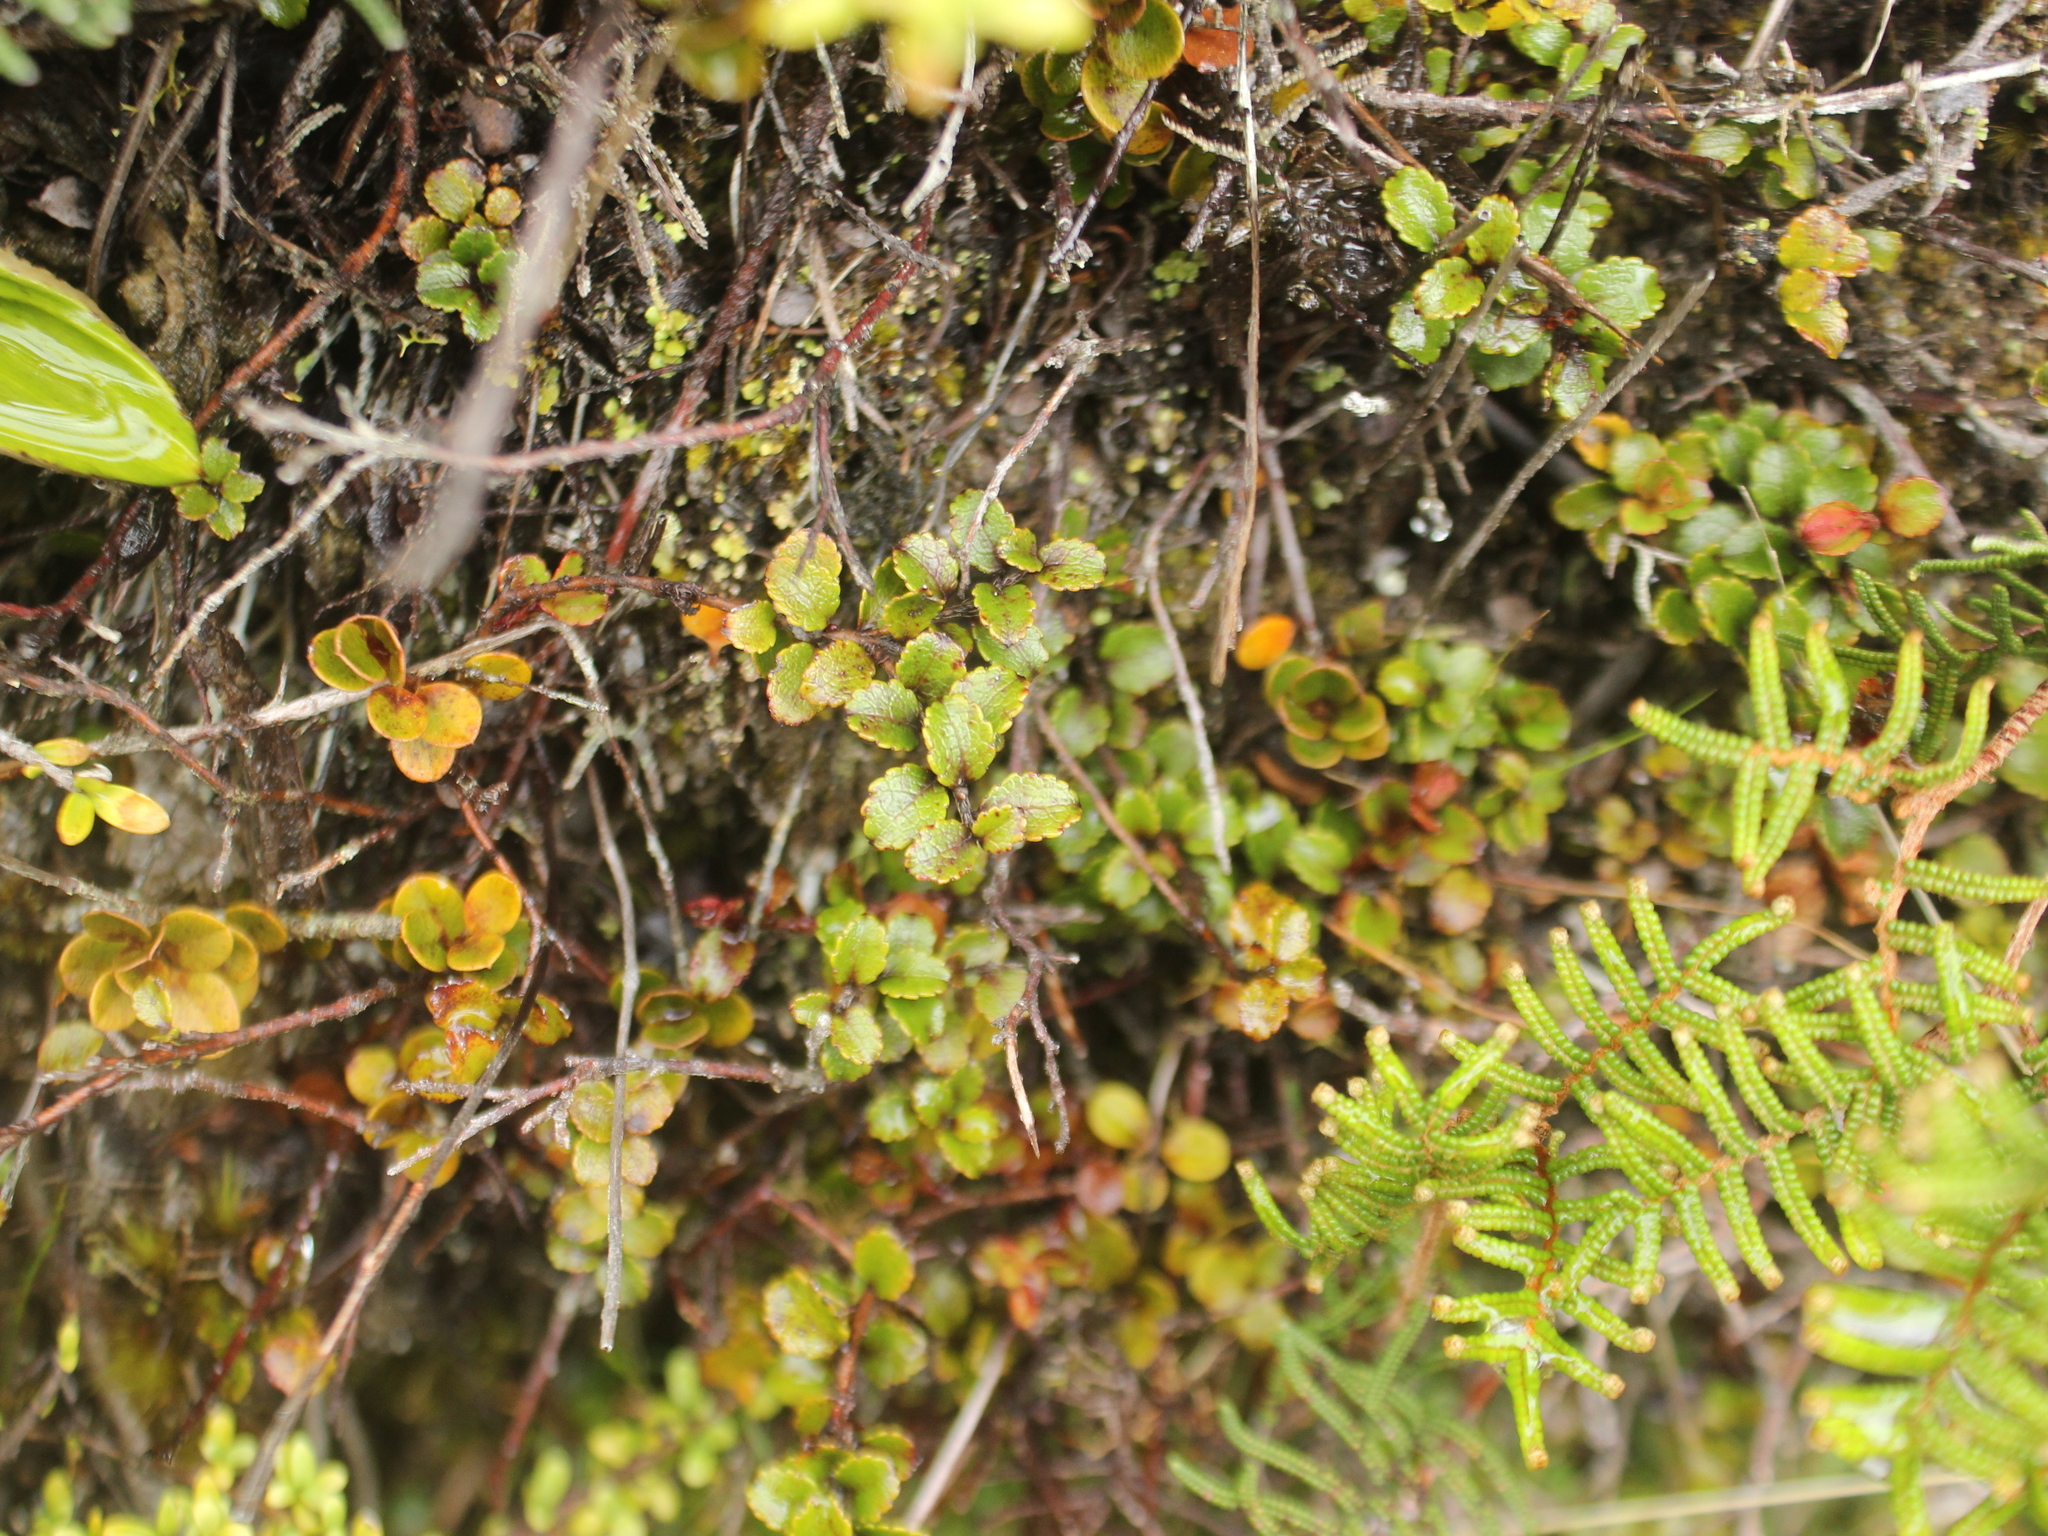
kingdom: Plantae
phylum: Tracheophyta
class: Magnoliopsida
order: Ericales
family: Ericaceae
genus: Gaultheria
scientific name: Gaultheria depressa
